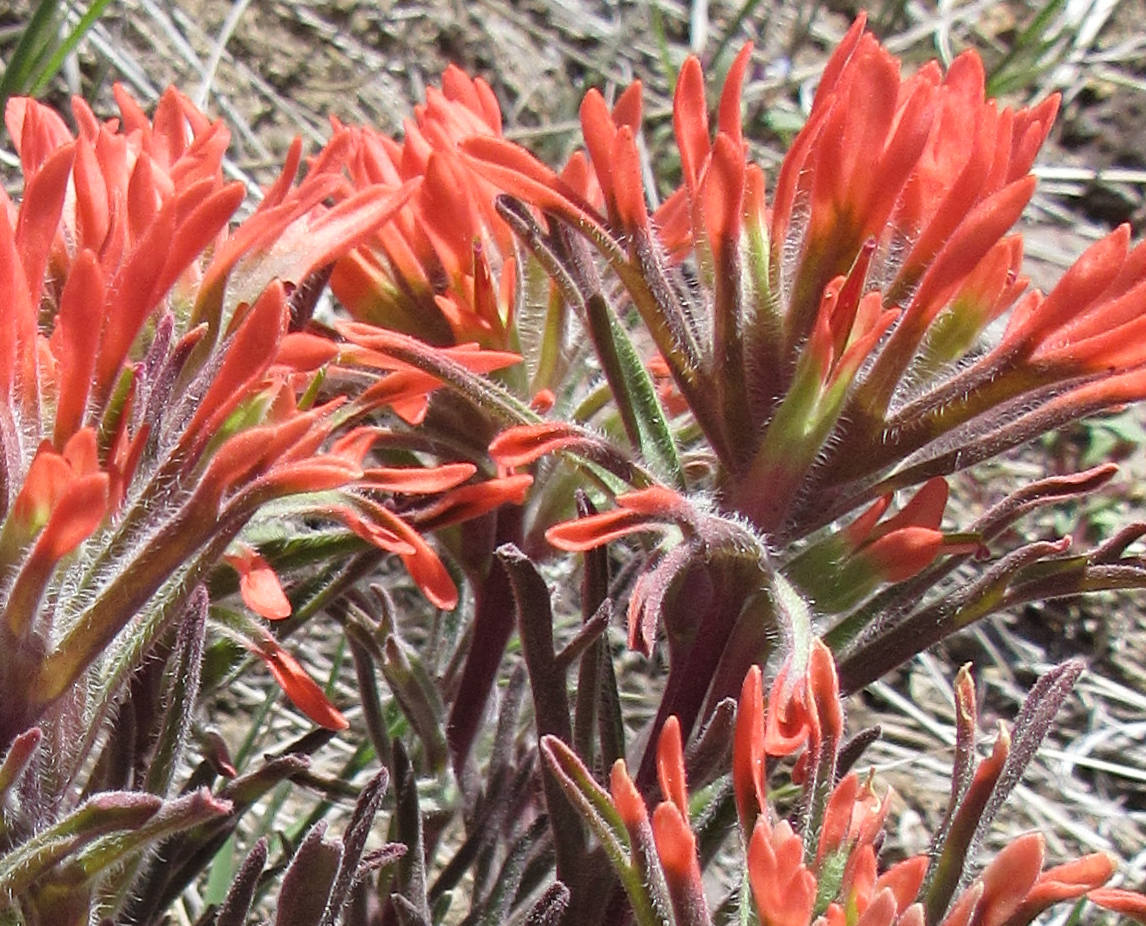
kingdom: Plantae
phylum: Tracheophyta
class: Magnoliopsida
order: Lamiales
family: Orobanchaceae
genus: Castilleja
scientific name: Castilleja chromosa
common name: Desert paintbrush
